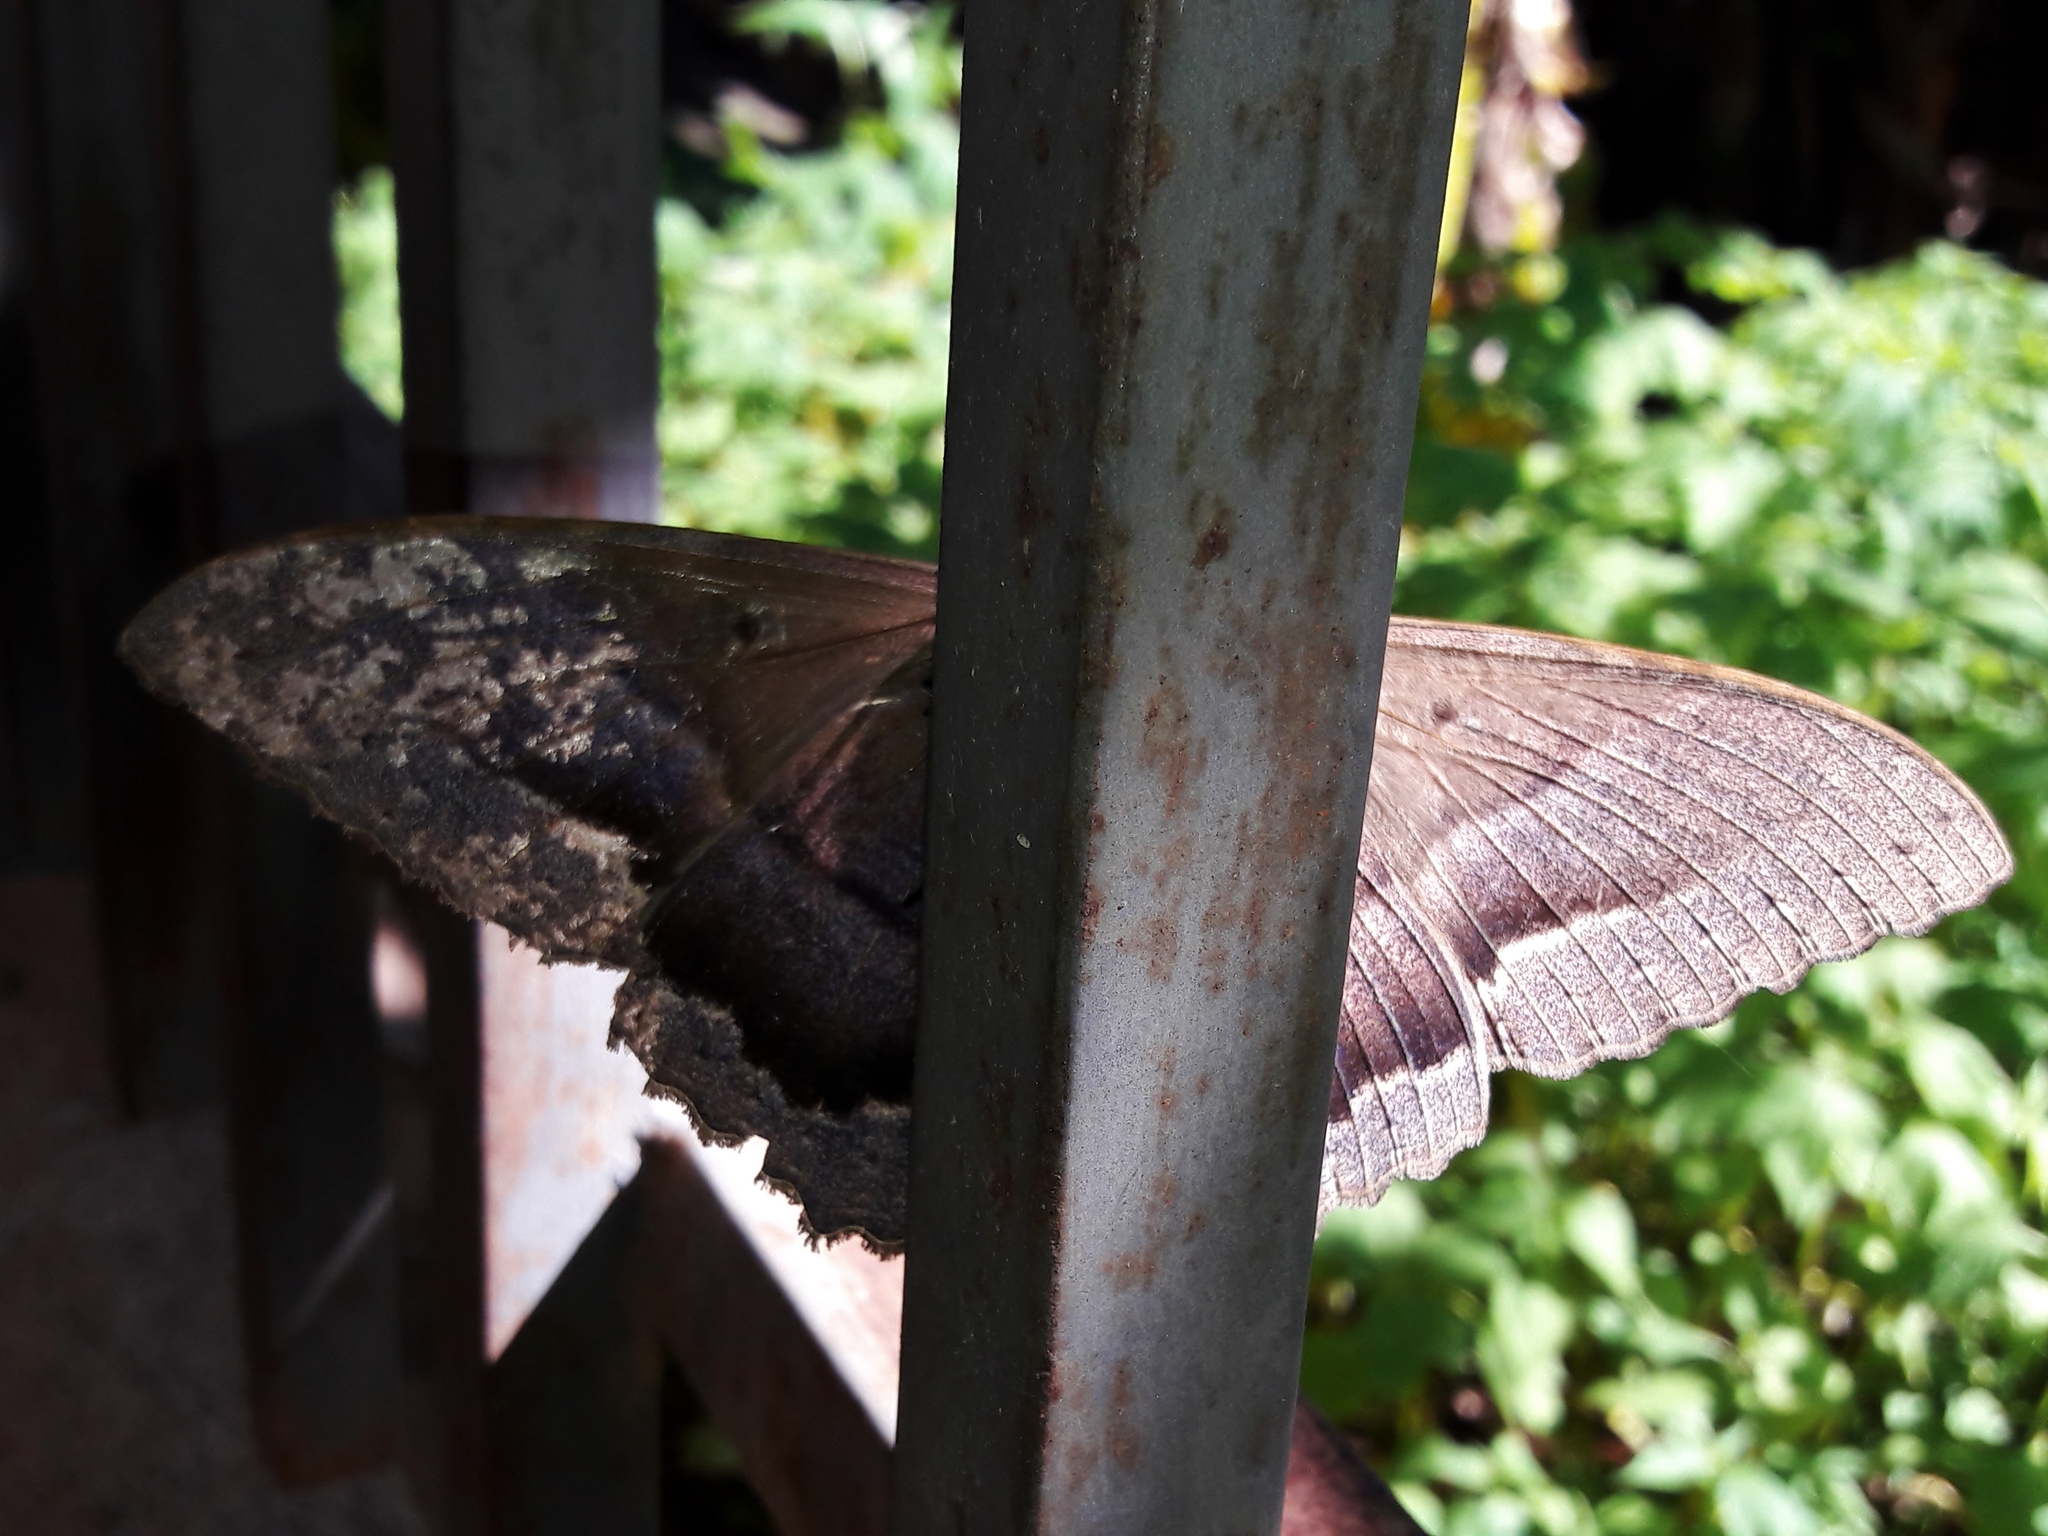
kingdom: Animalia
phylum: Arthropoda
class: Insecta
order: Lepidoptera
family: Erebidae
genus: Ascalapha
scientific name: Ascalapha odorata
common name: Black witch
